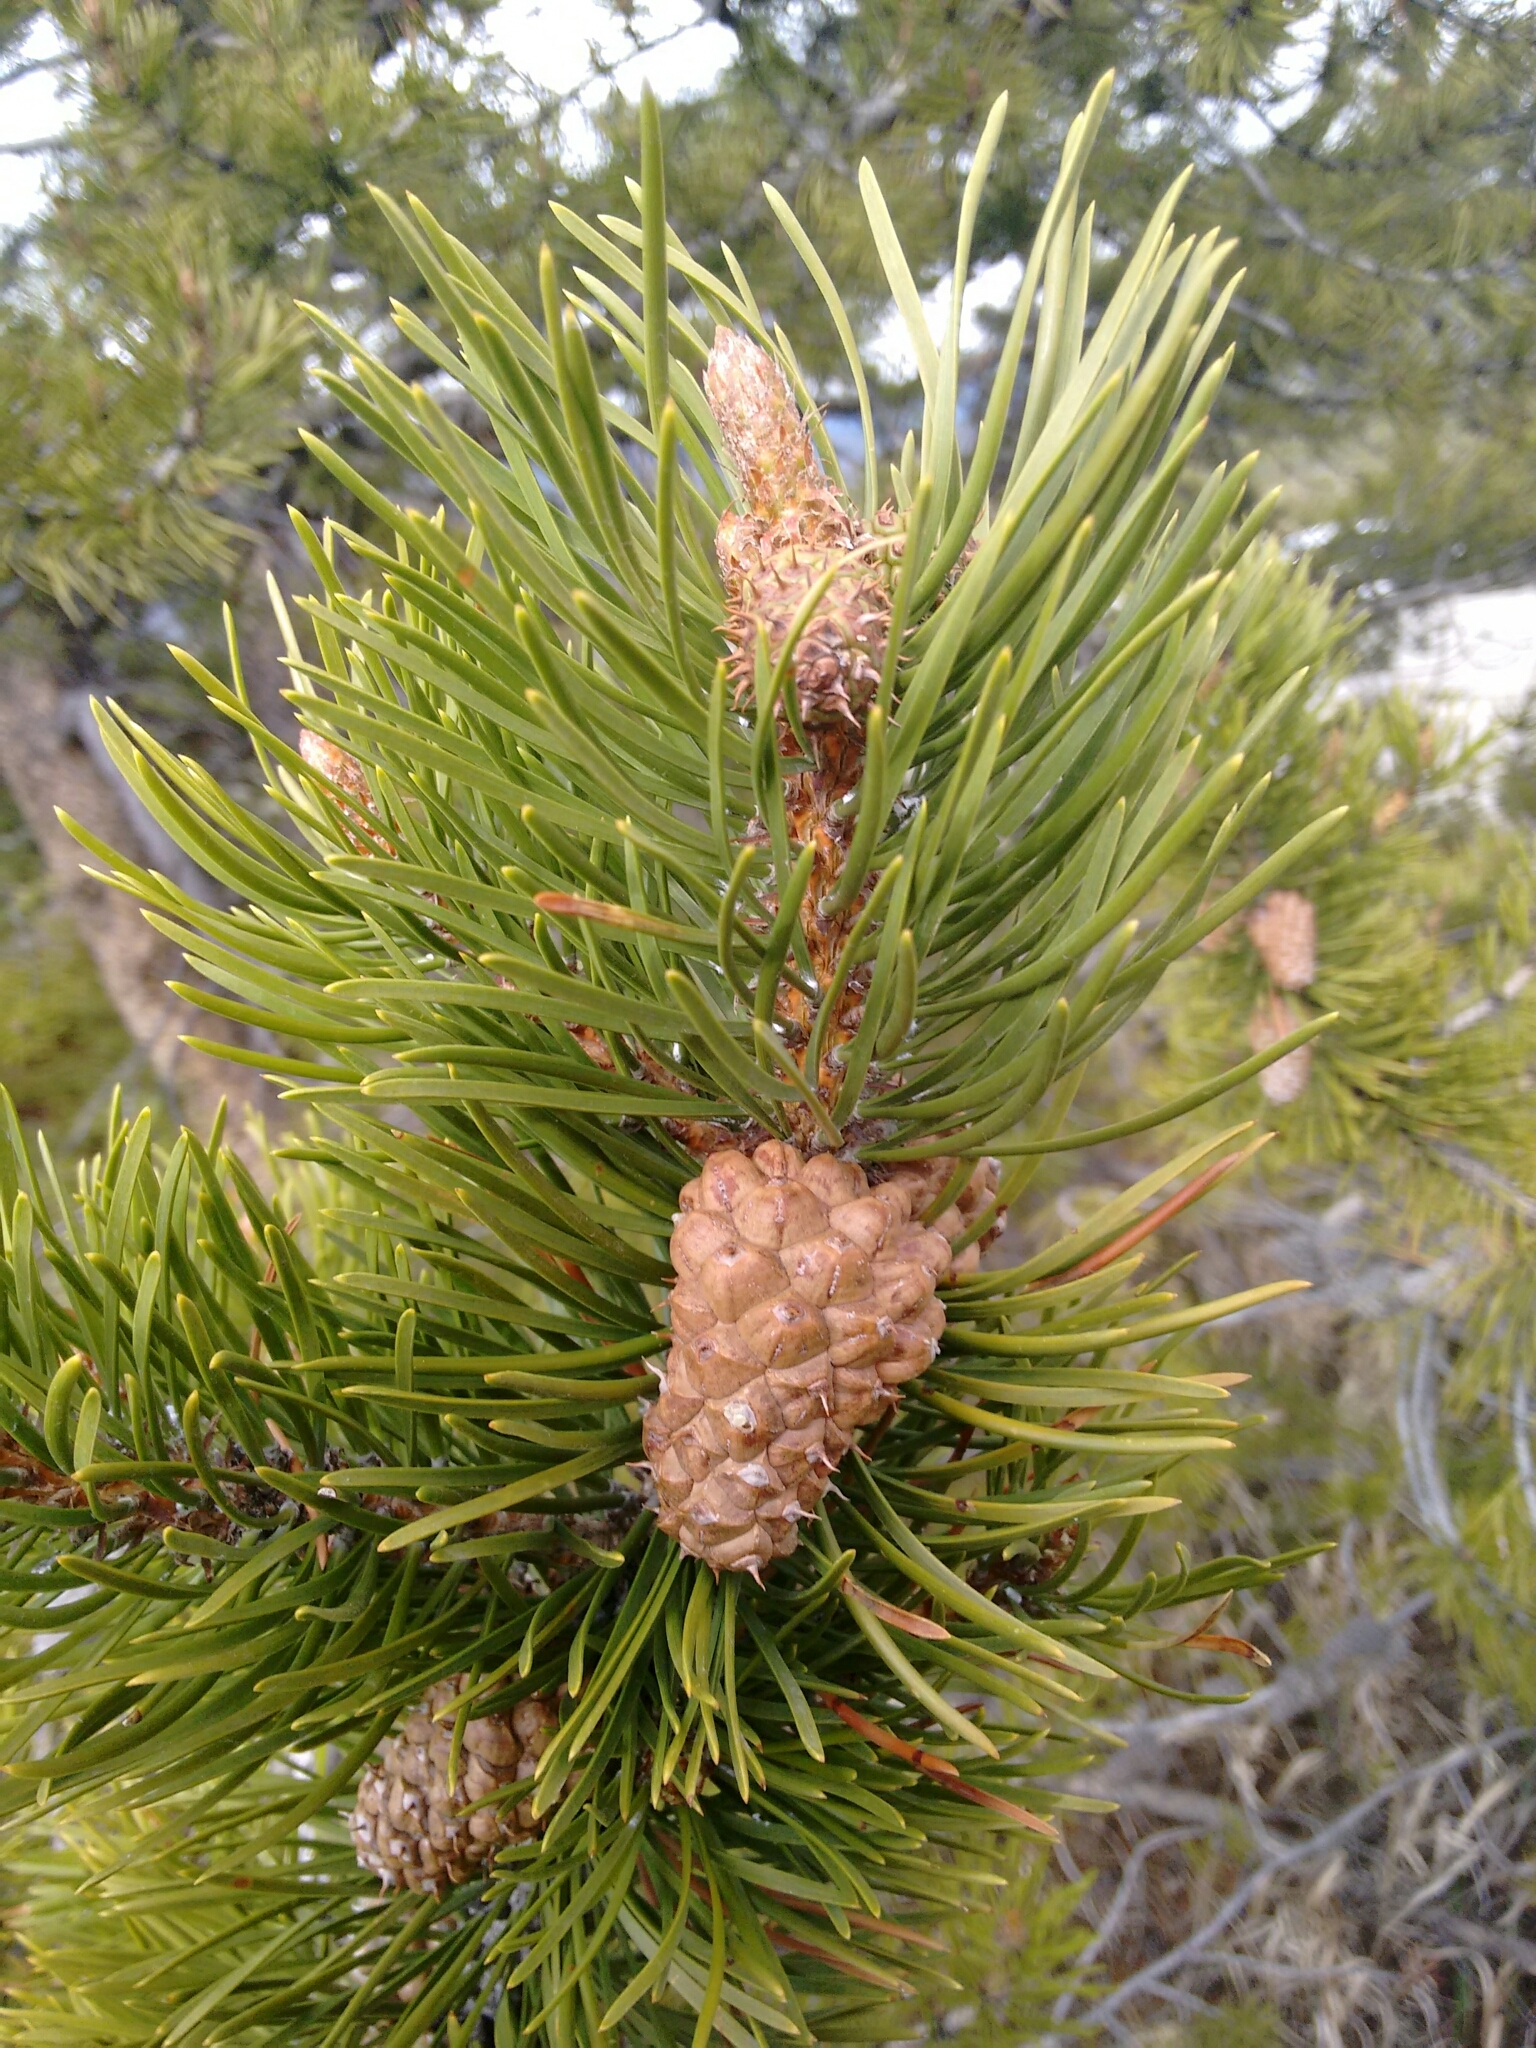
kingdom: Plantae
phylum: Tracheophyta
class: Pinopsida
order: Pinales
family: Pinaceae
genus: Pinus
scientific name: Pinus contorta
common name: Lodgepole pine
